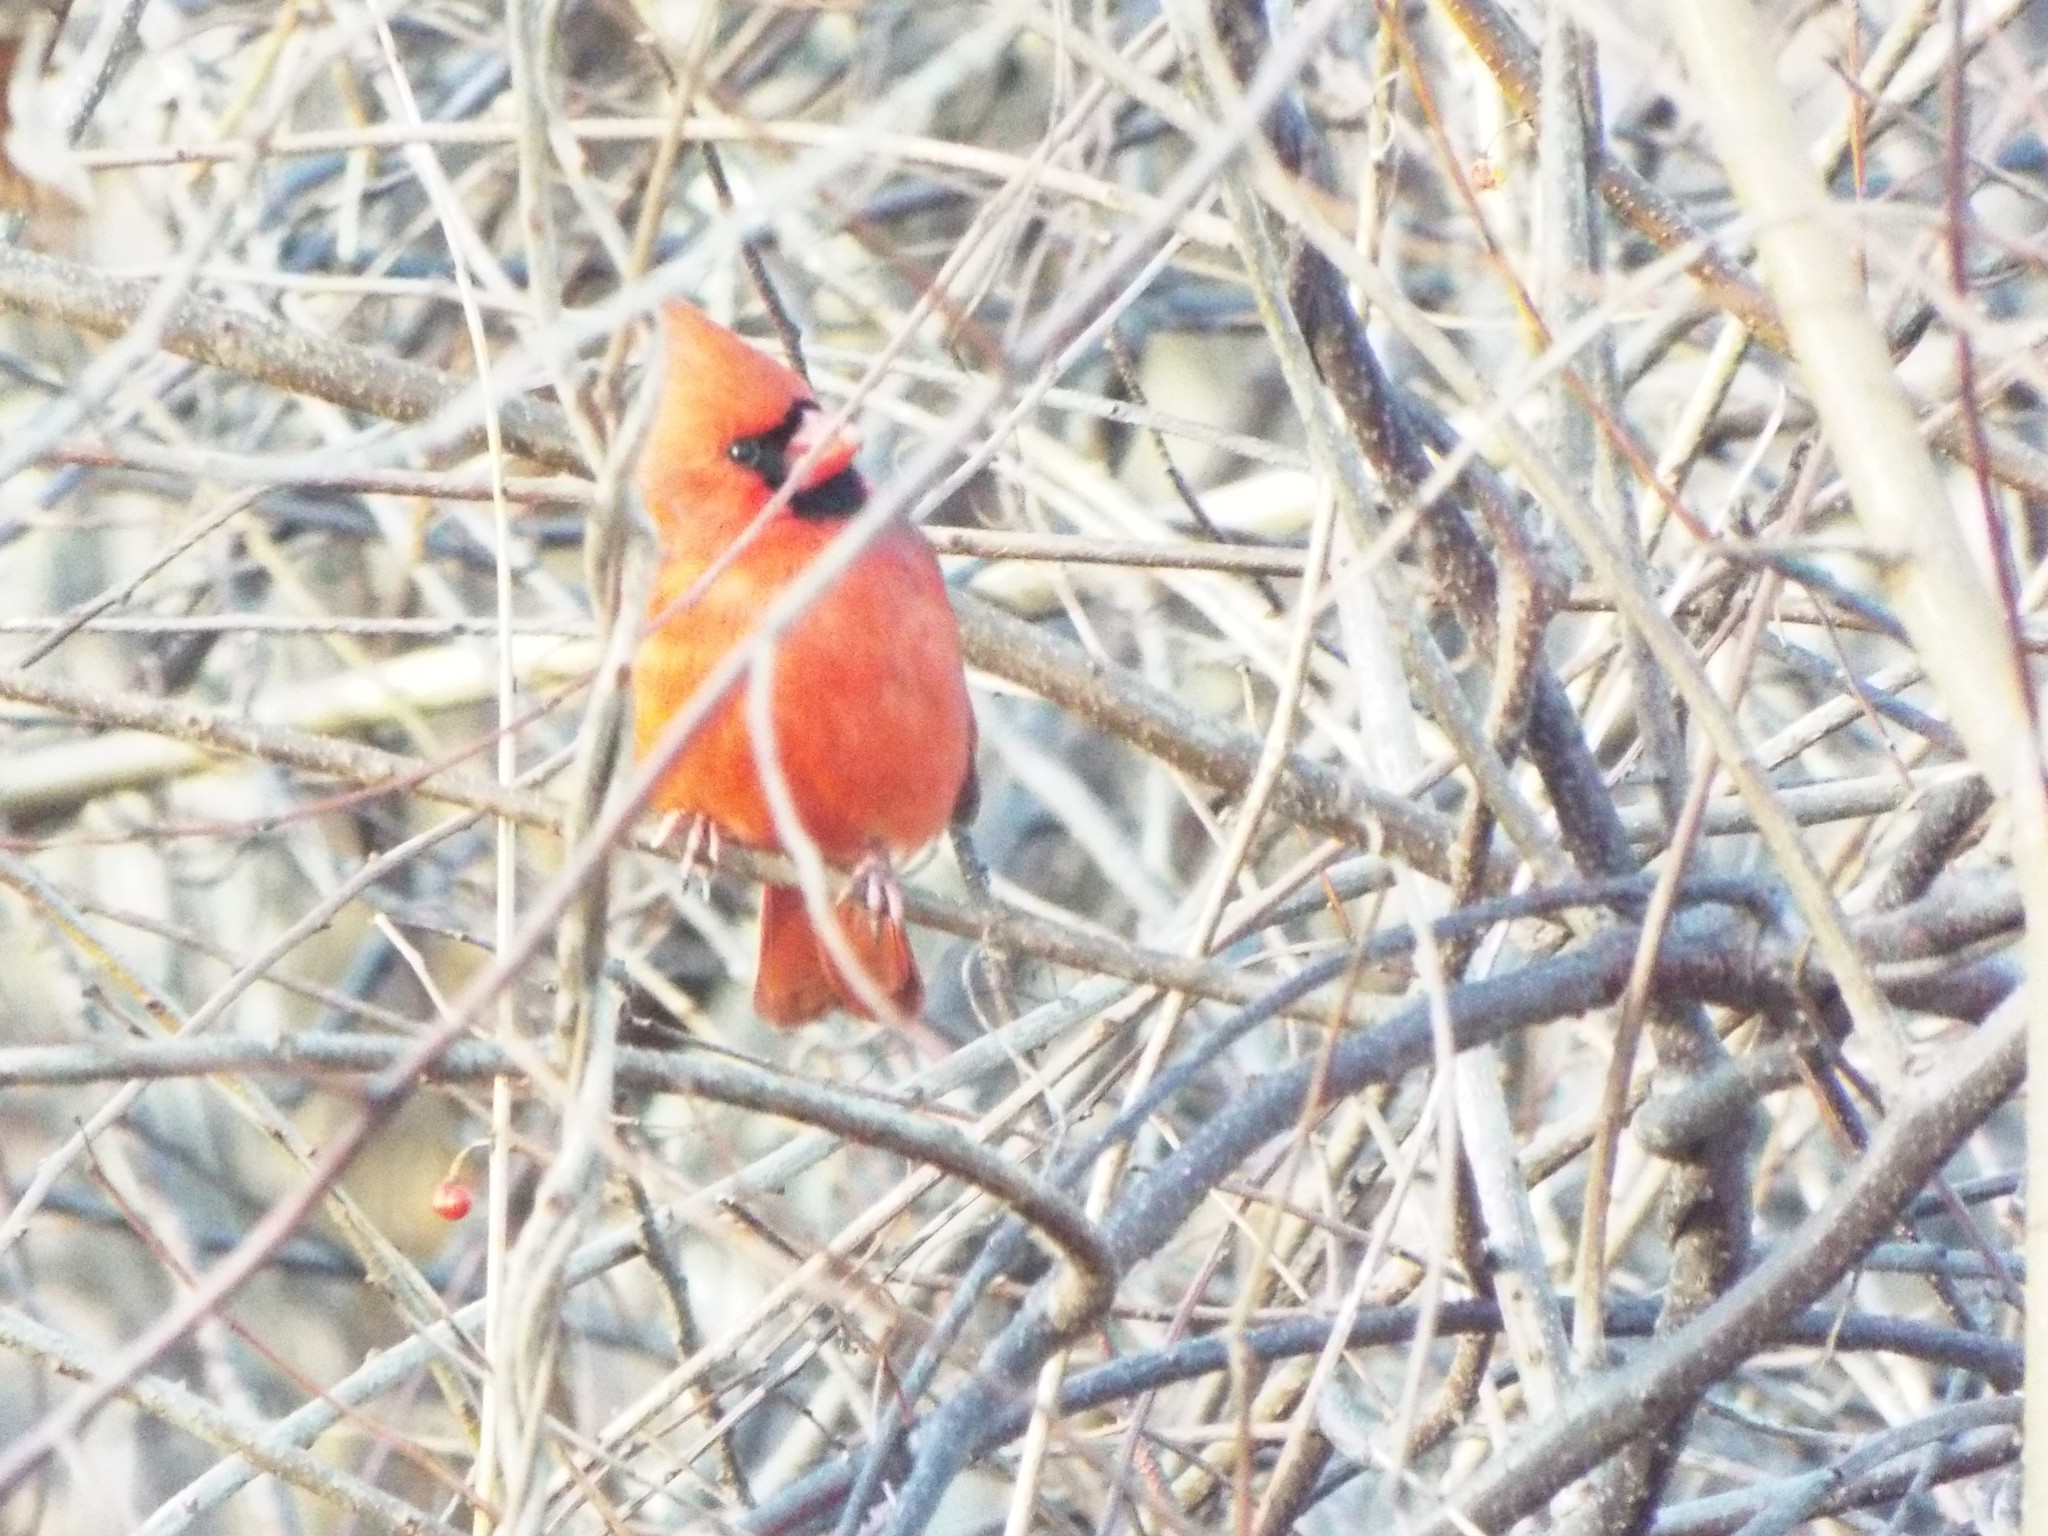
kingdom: Animalia
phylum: Chordata
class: Aves
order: Passeriformes
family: Cardinalidae
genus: Cardinalis
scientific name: Cardinalis cardinalis
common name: Northern cardinal
